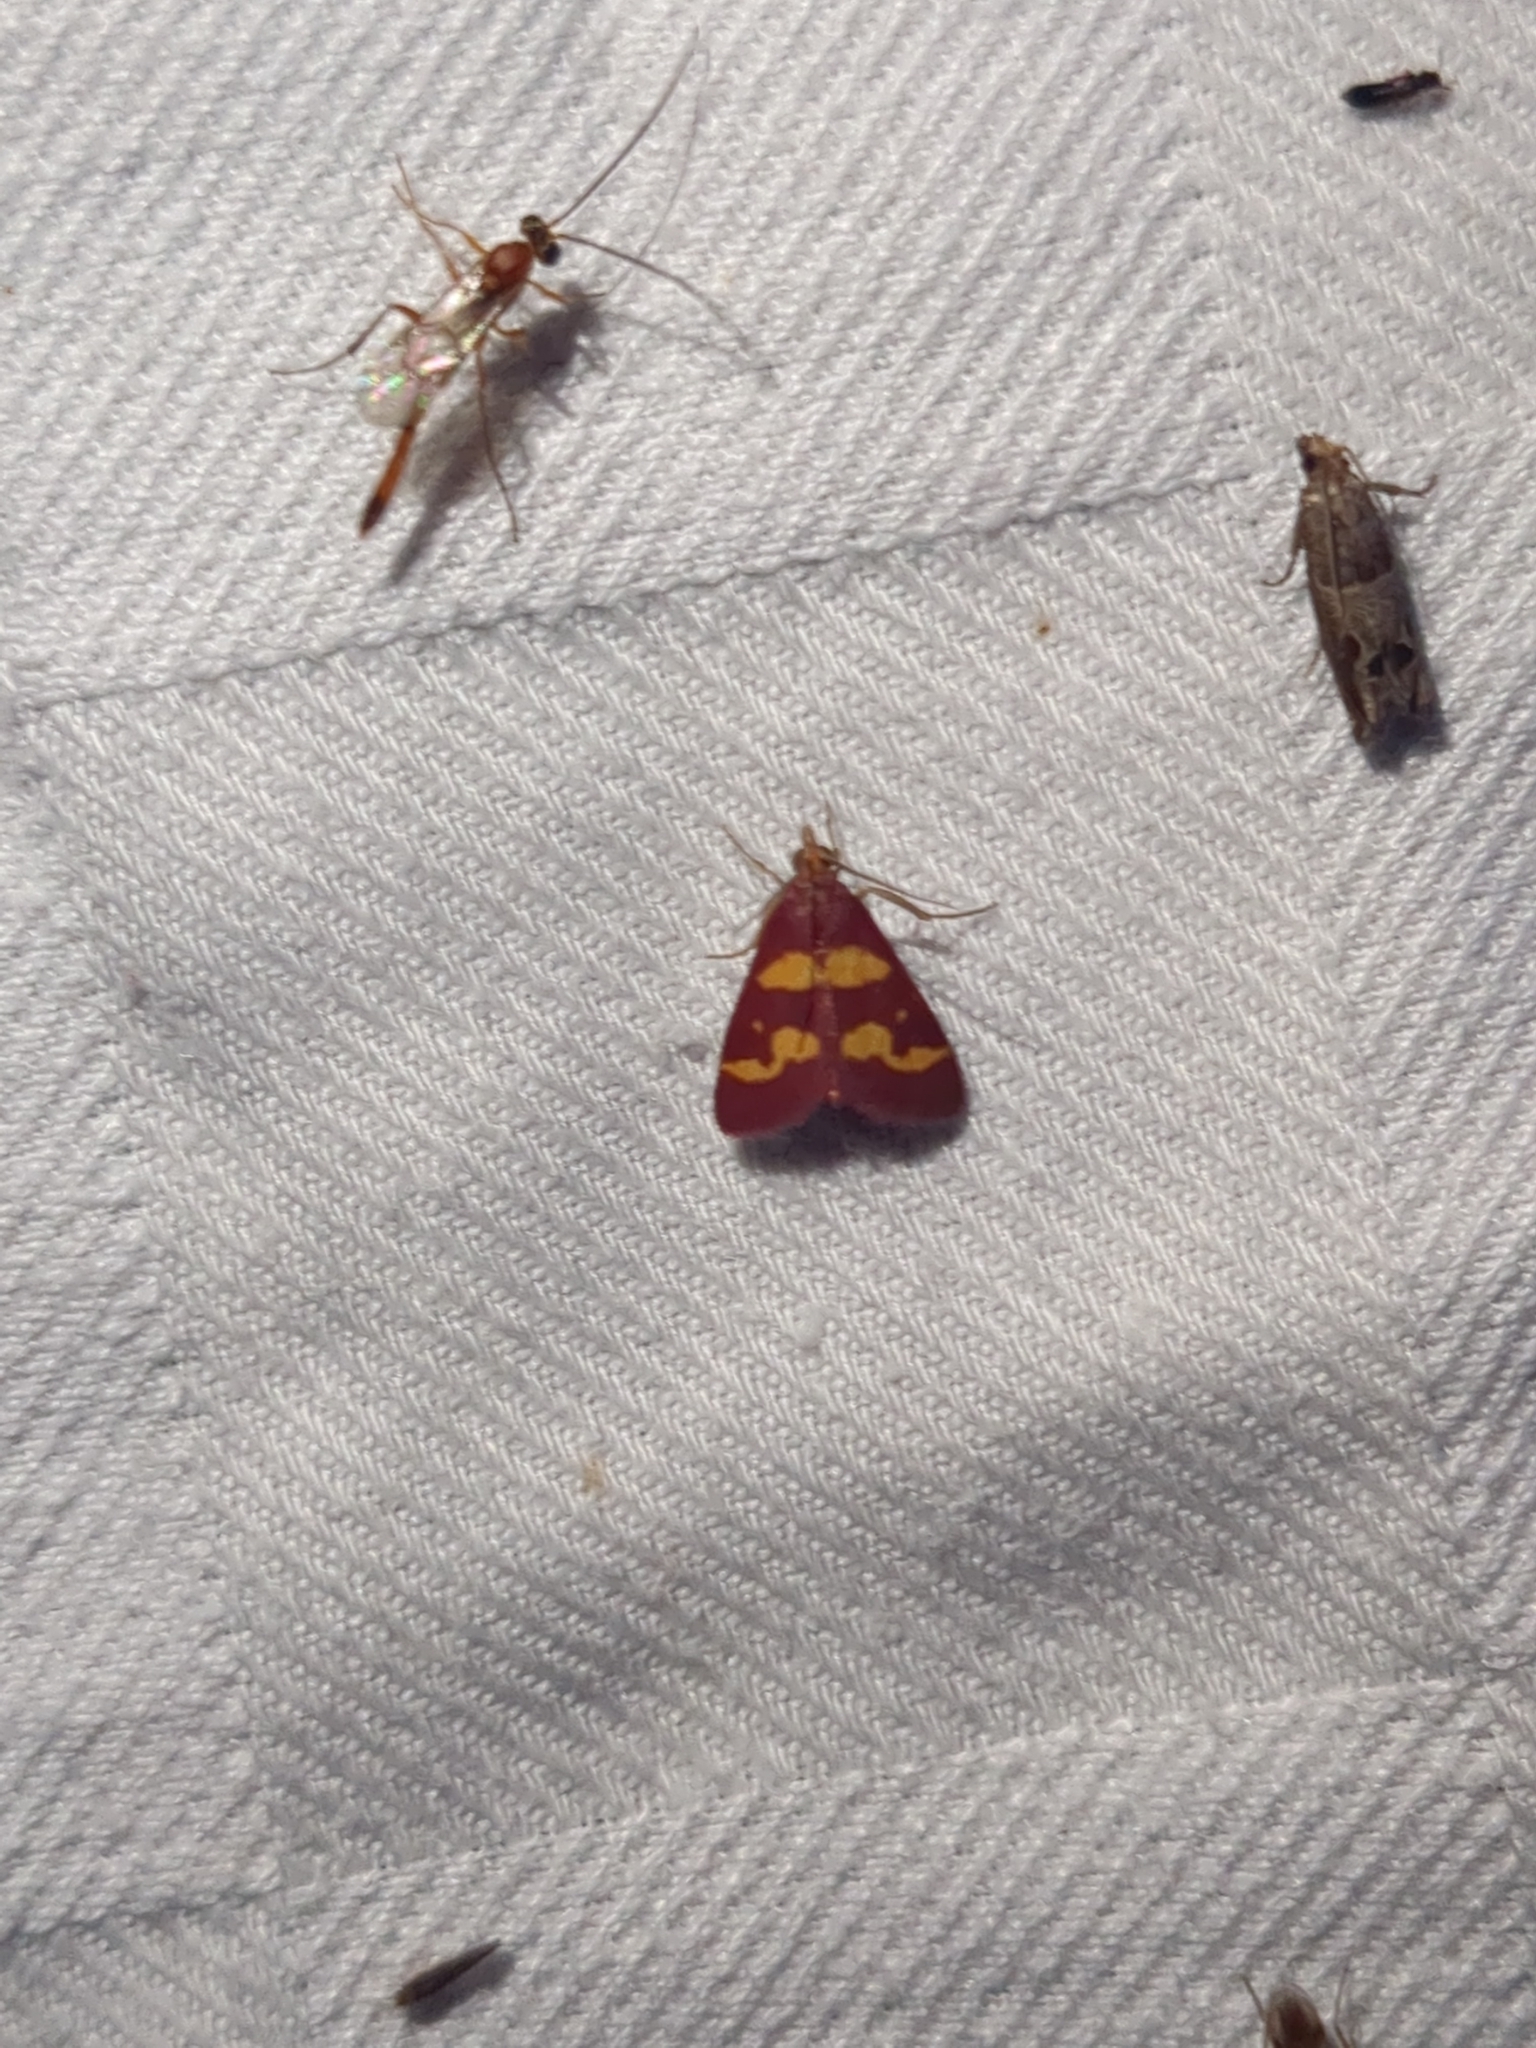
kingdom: Animalia
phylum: Arthropoda
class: Insecta
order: Lepidoptera
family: Crambidae
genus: Pyrausta
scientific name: Pyrausta tyralis
